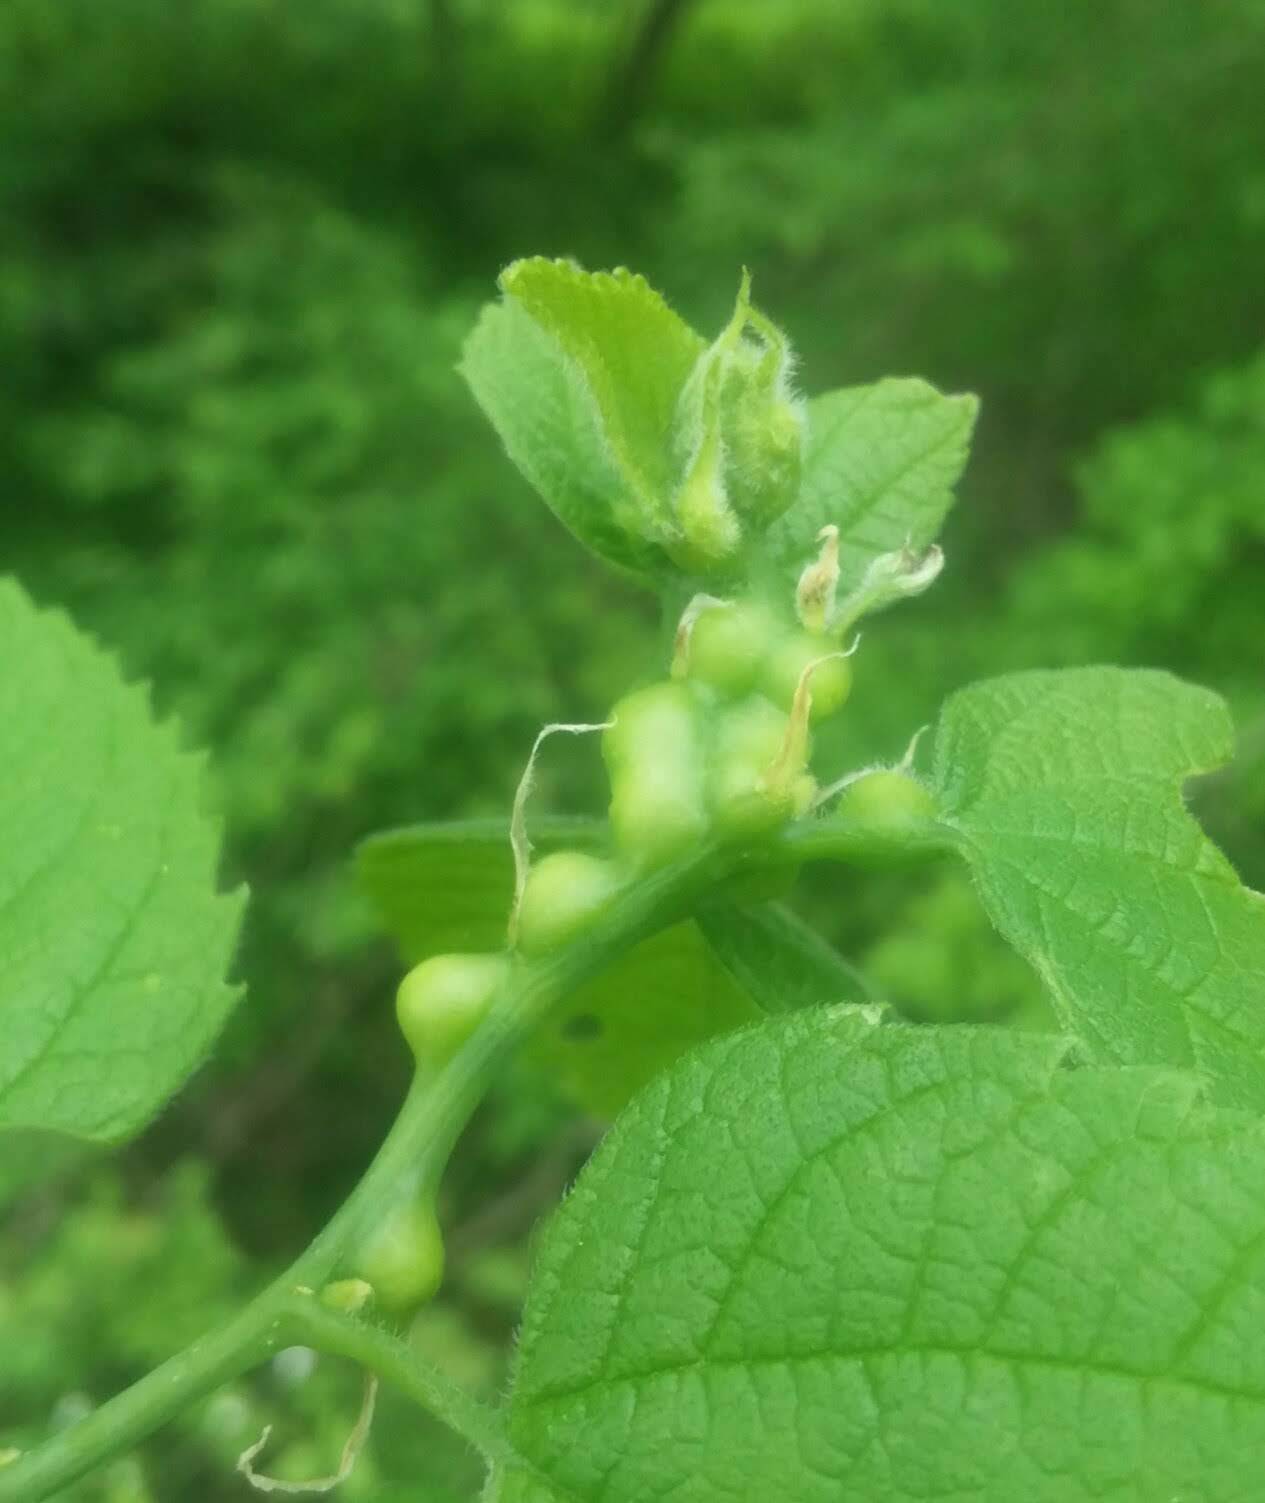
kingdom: Animalia
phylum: Arthropoda
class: Insecta
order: Diptera
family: Cecidomyiidae
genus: Celticecis
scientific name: Celticecis expulsa
